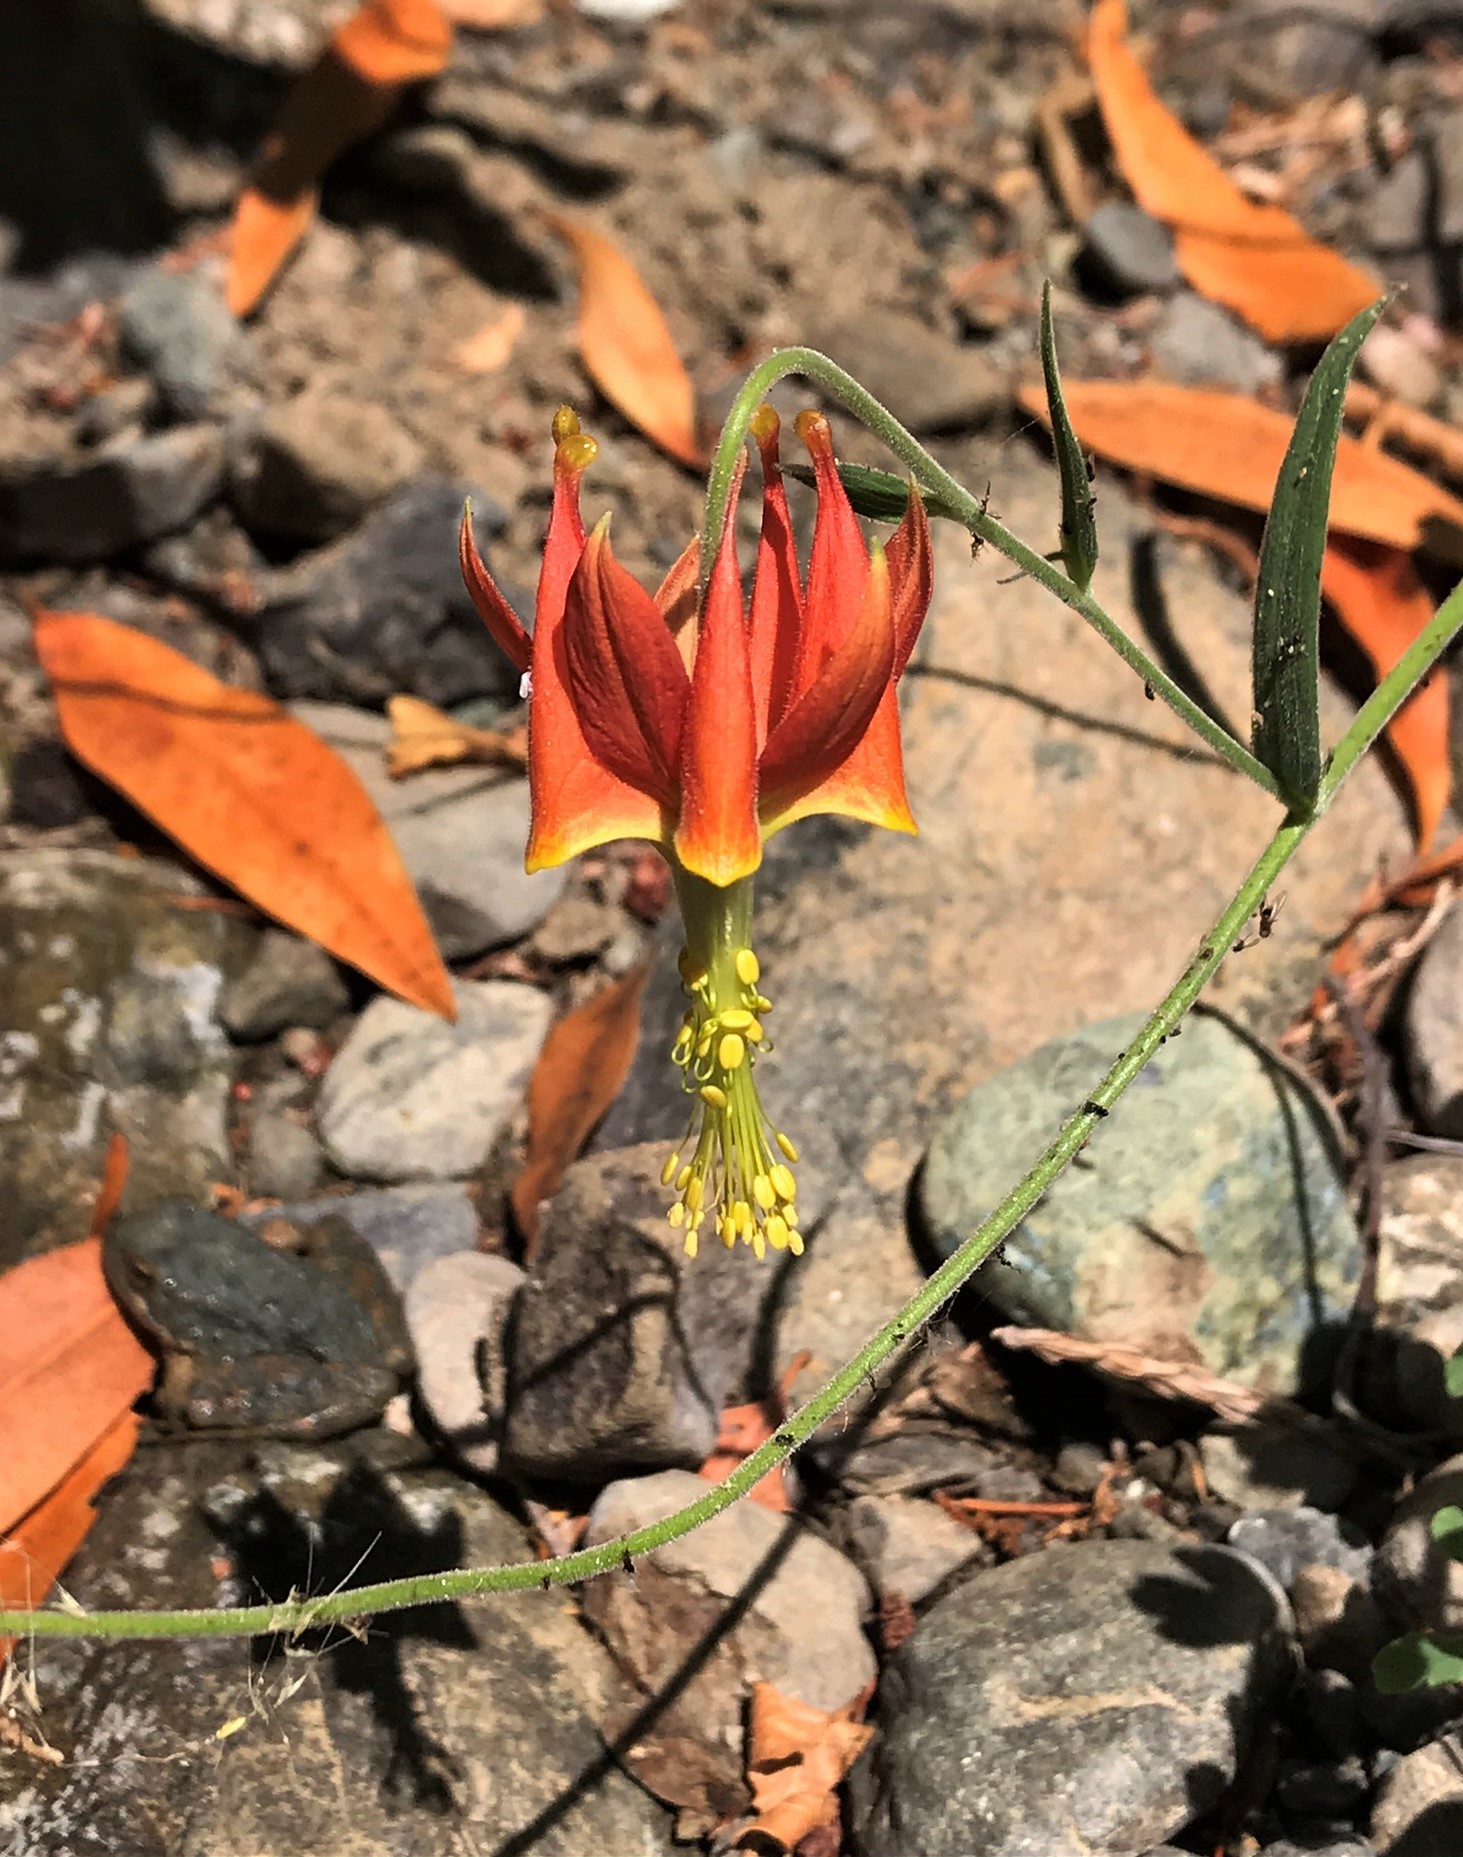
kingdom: Plantae
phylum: Tracheophyta
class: Magnoliopsida
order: Ranunculales
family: Ranunculaceae
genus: Aquilegia
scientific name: Aquilegia eximia
